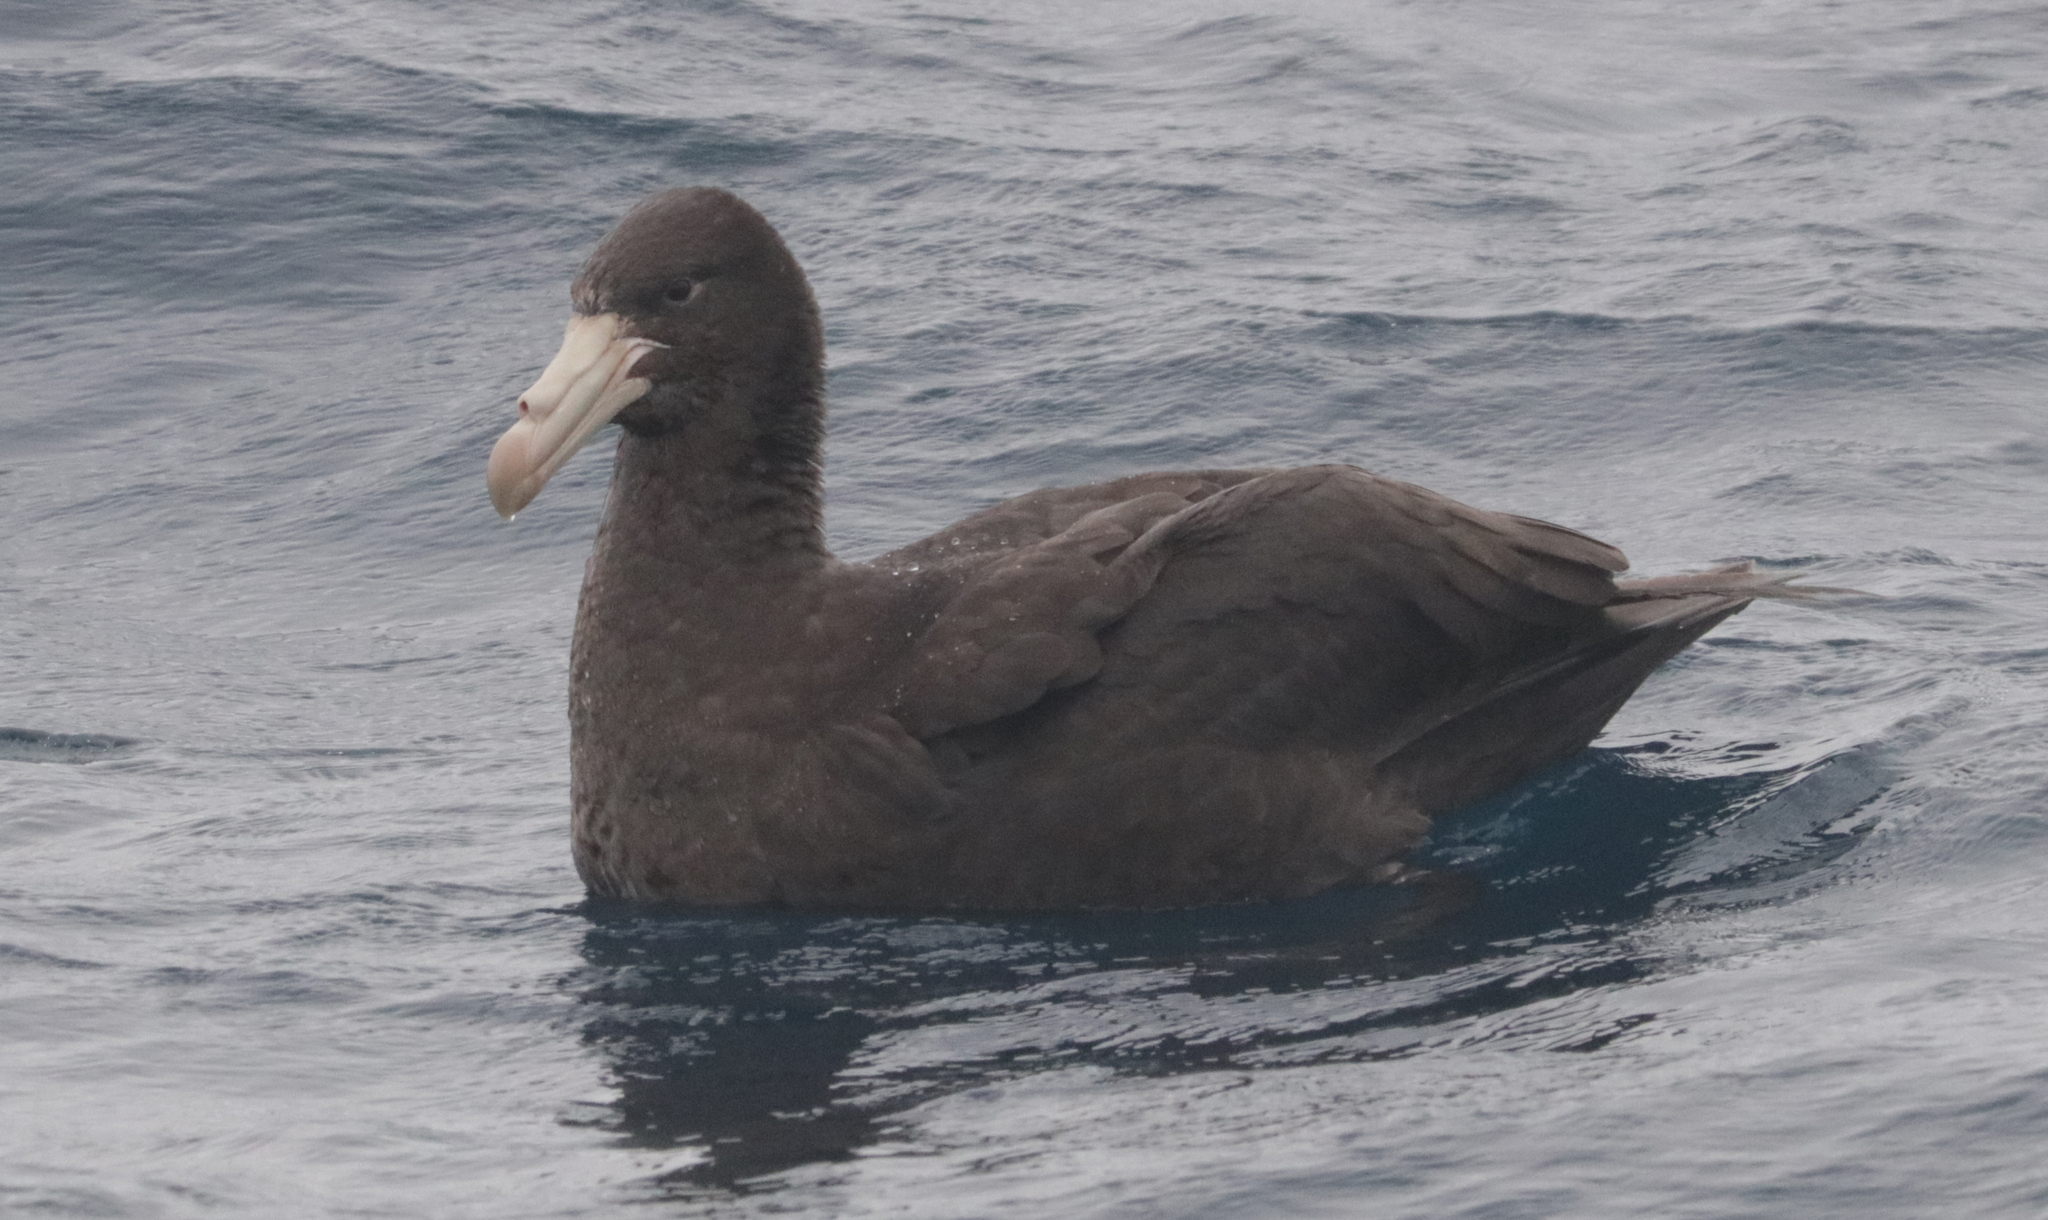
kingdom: Animalia
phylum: Chordata
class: Aves
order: Procellariiformes
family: Procellariidae
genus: Macronectes
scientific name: Macronectes halli
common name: Northern giant petrel
